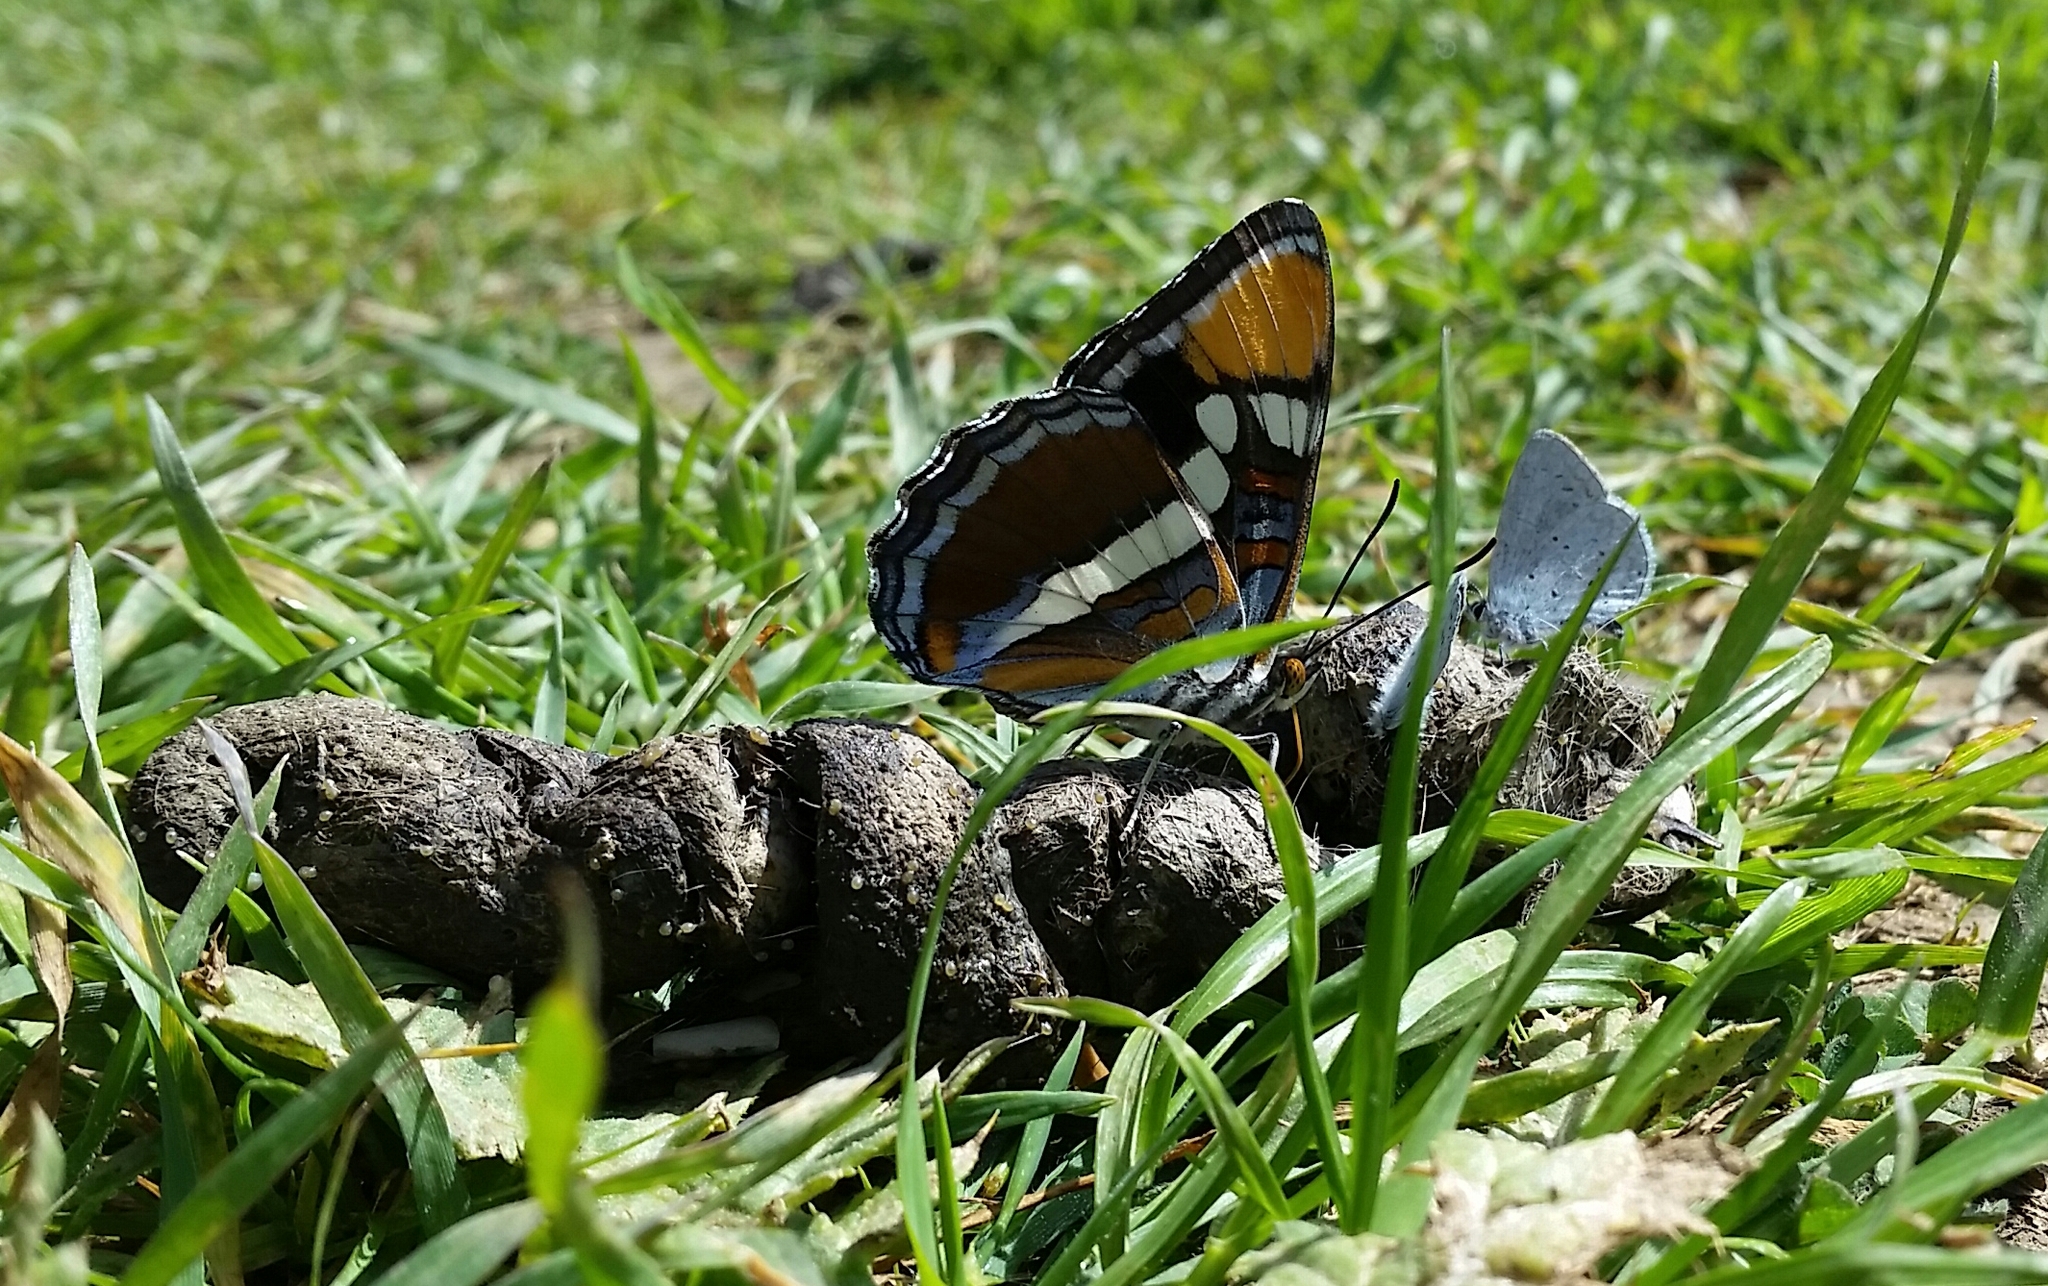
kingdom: Animalia
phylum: Arthropoda
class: Insecta
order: Lepidoptera
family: Nymphalidae
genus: Limenitis
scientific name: Limenitis bredowii
